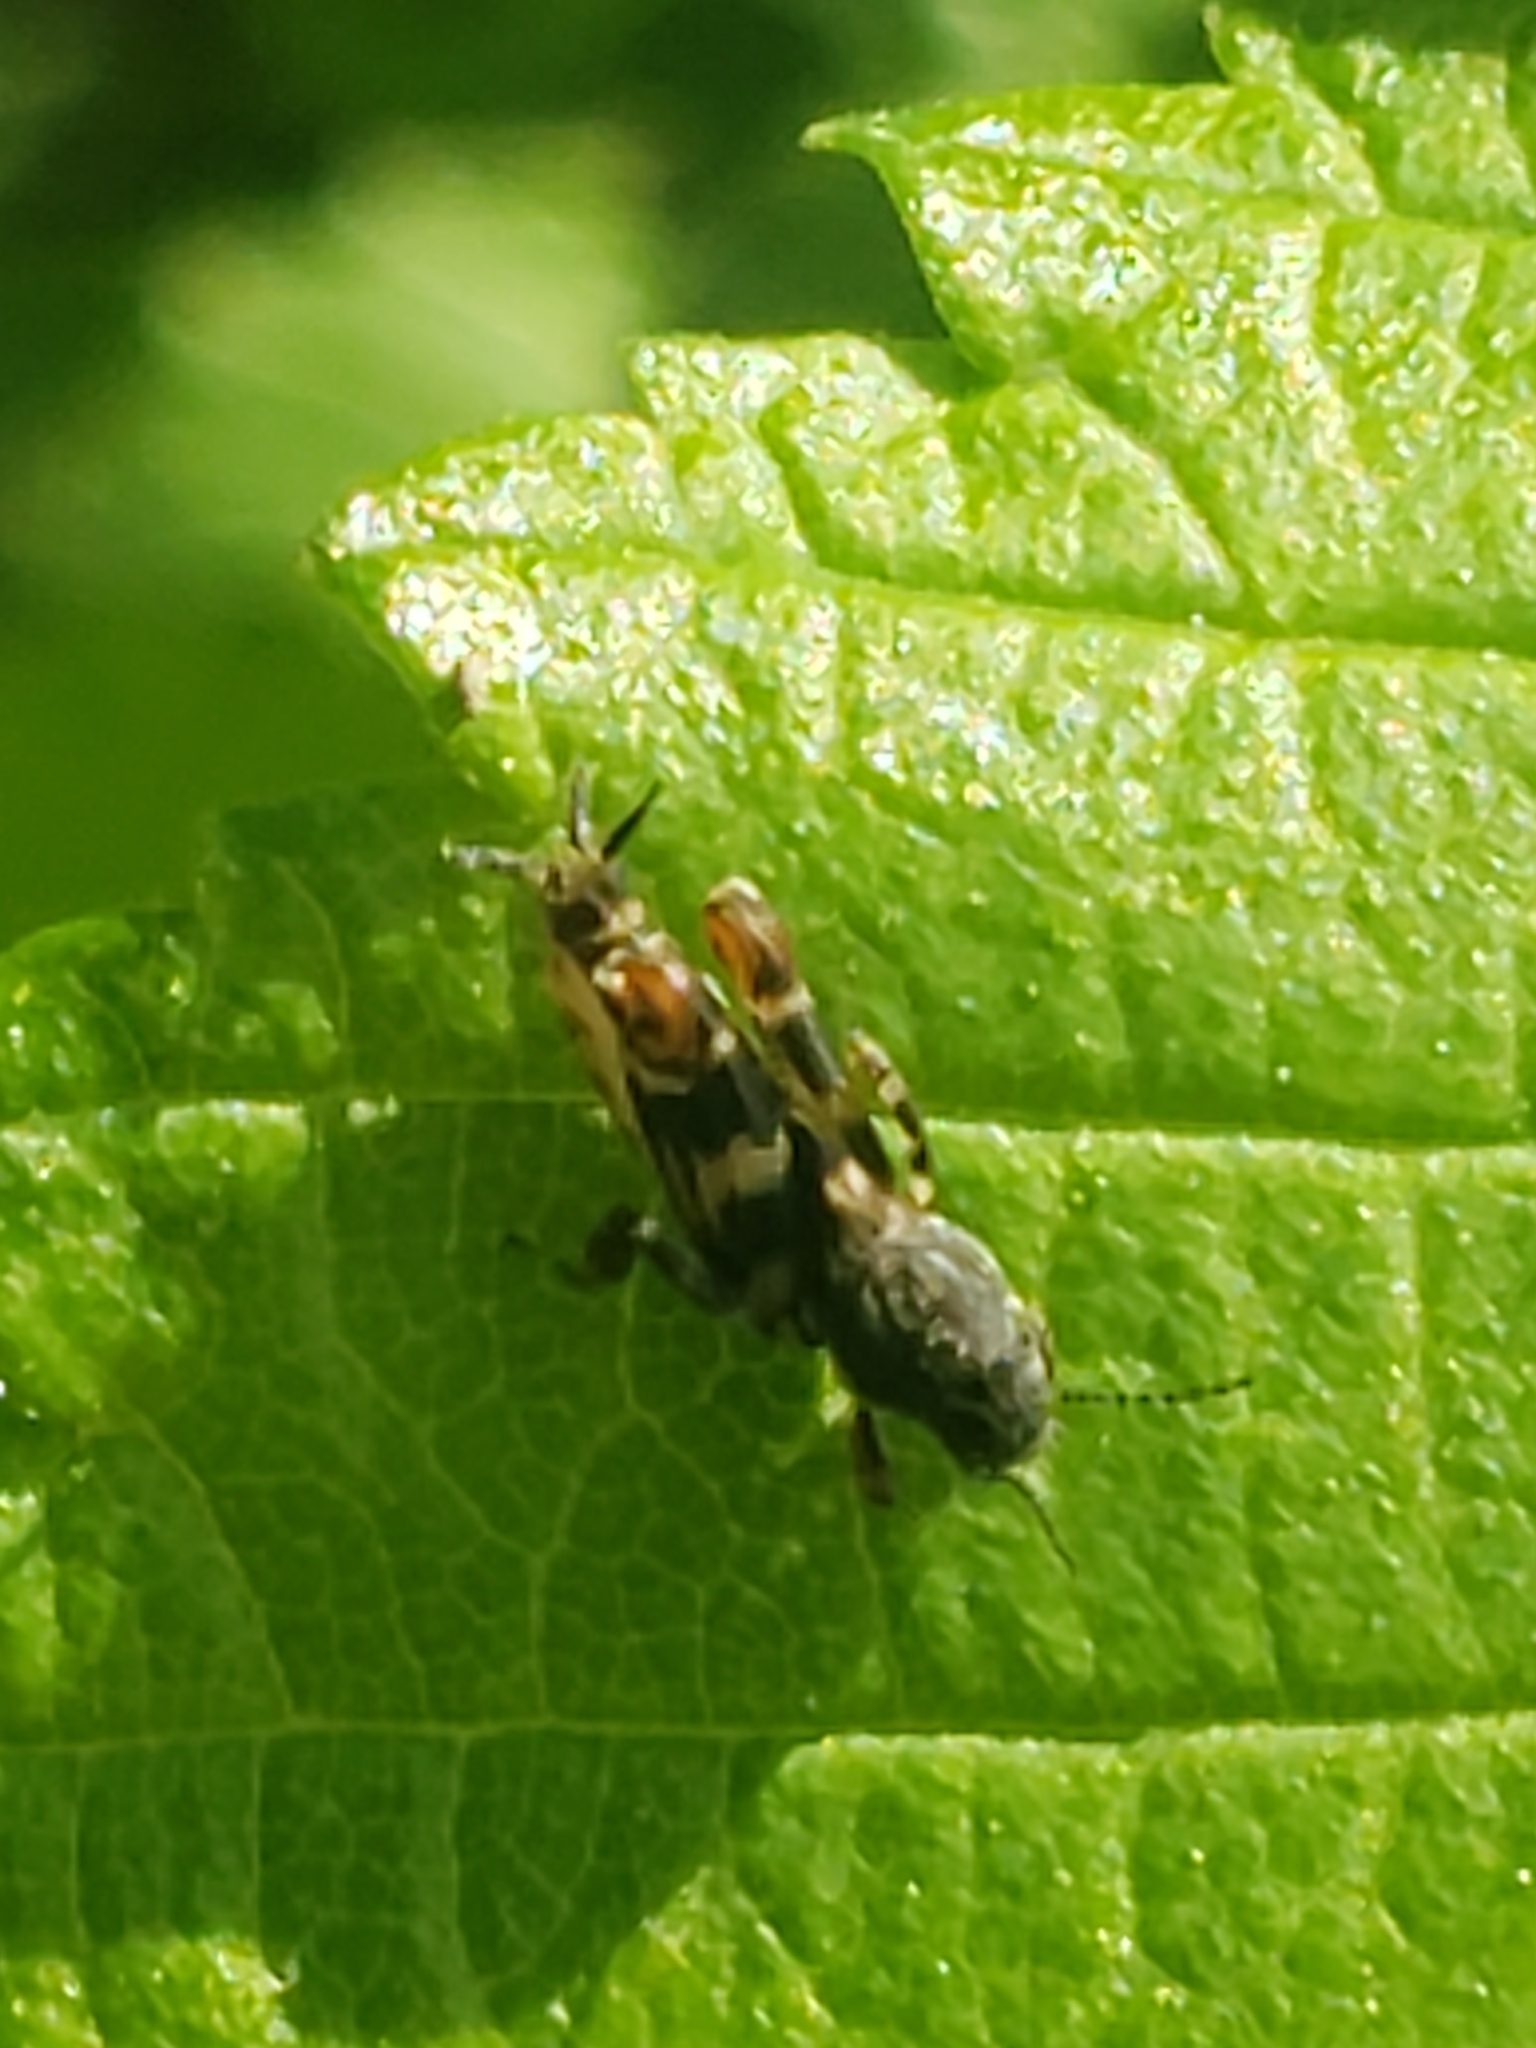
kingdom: Animalia
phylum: Arthropoda
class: Insecta
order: Orthoptera
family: Tridactylidae
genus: Ellipes
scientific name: Ellipes minuta
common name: Minute pygmy locust
